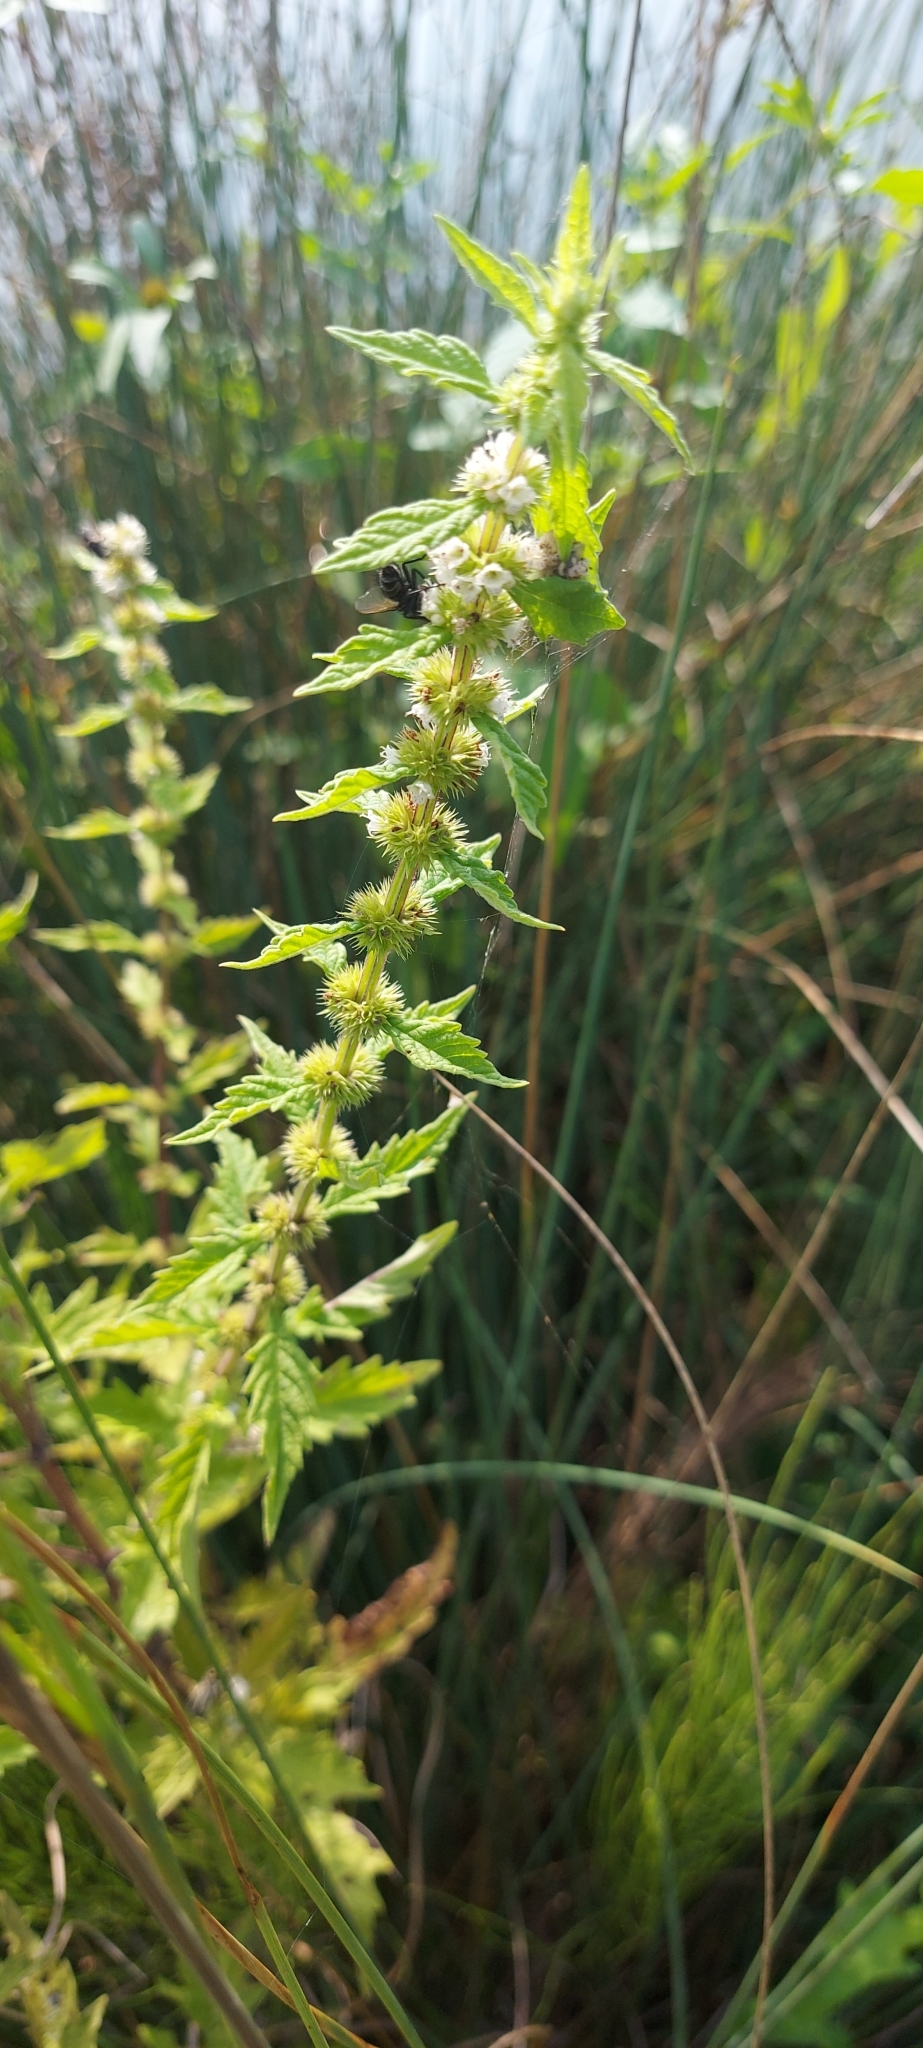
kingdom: Plantae
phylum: Tracheophyta
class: Magnoliopsida
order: Lamiales
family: Lamiaceae
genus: Lycopus
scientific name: Lycopus europaeus
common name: European bugleweed
